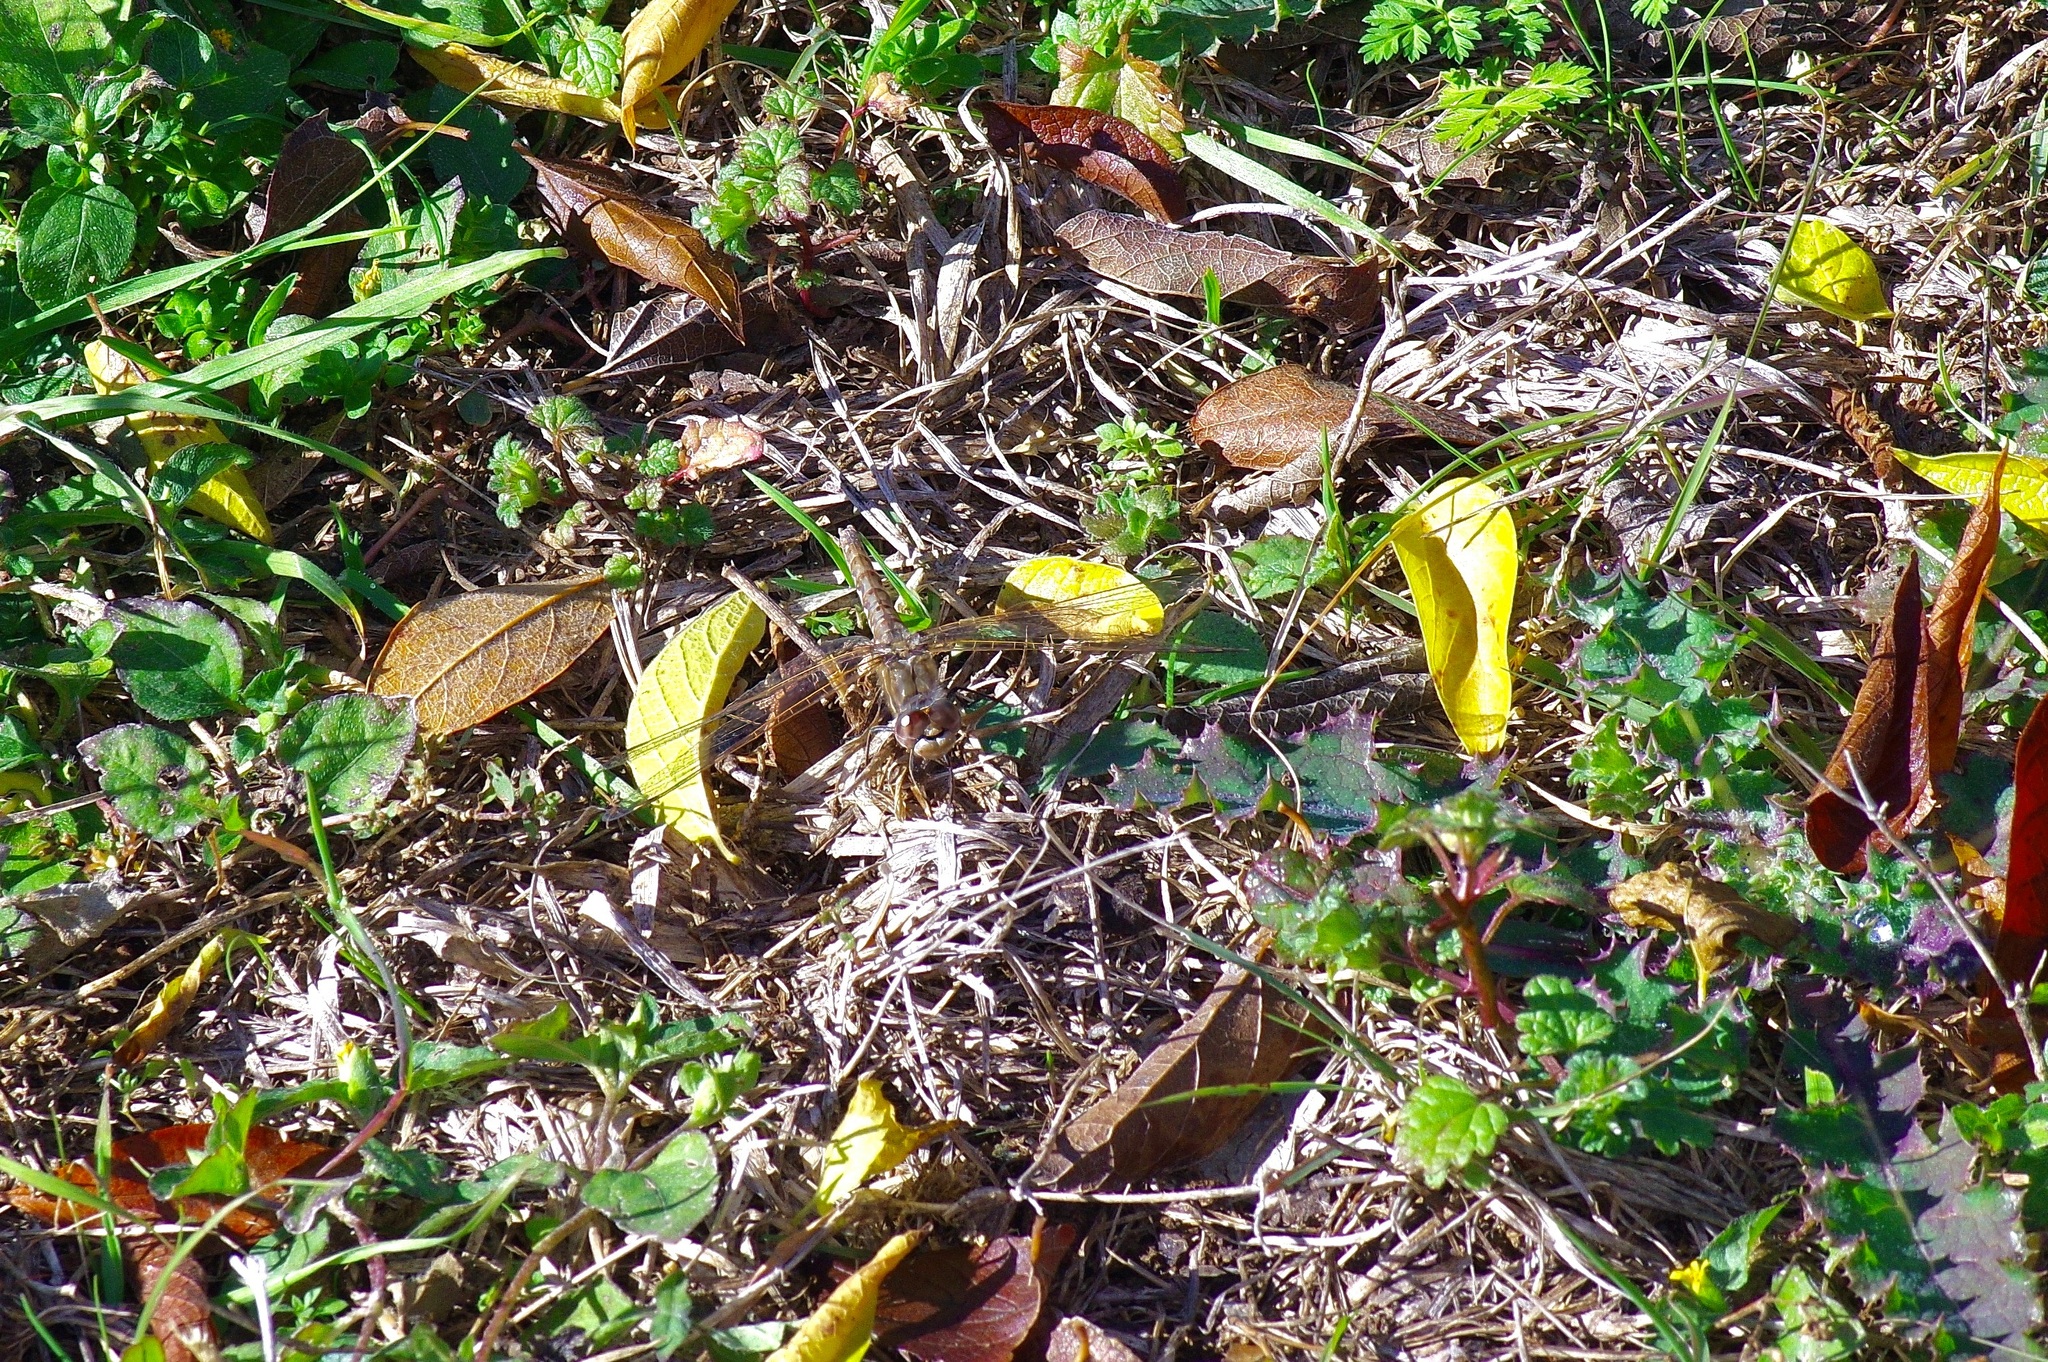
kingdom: Animalia
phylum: Arthropoda
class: Insecta
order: Odonata
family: Libellulidae
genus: Sympetrum
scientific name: Sympetrum corruptum
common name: Variegated meadowhawk
